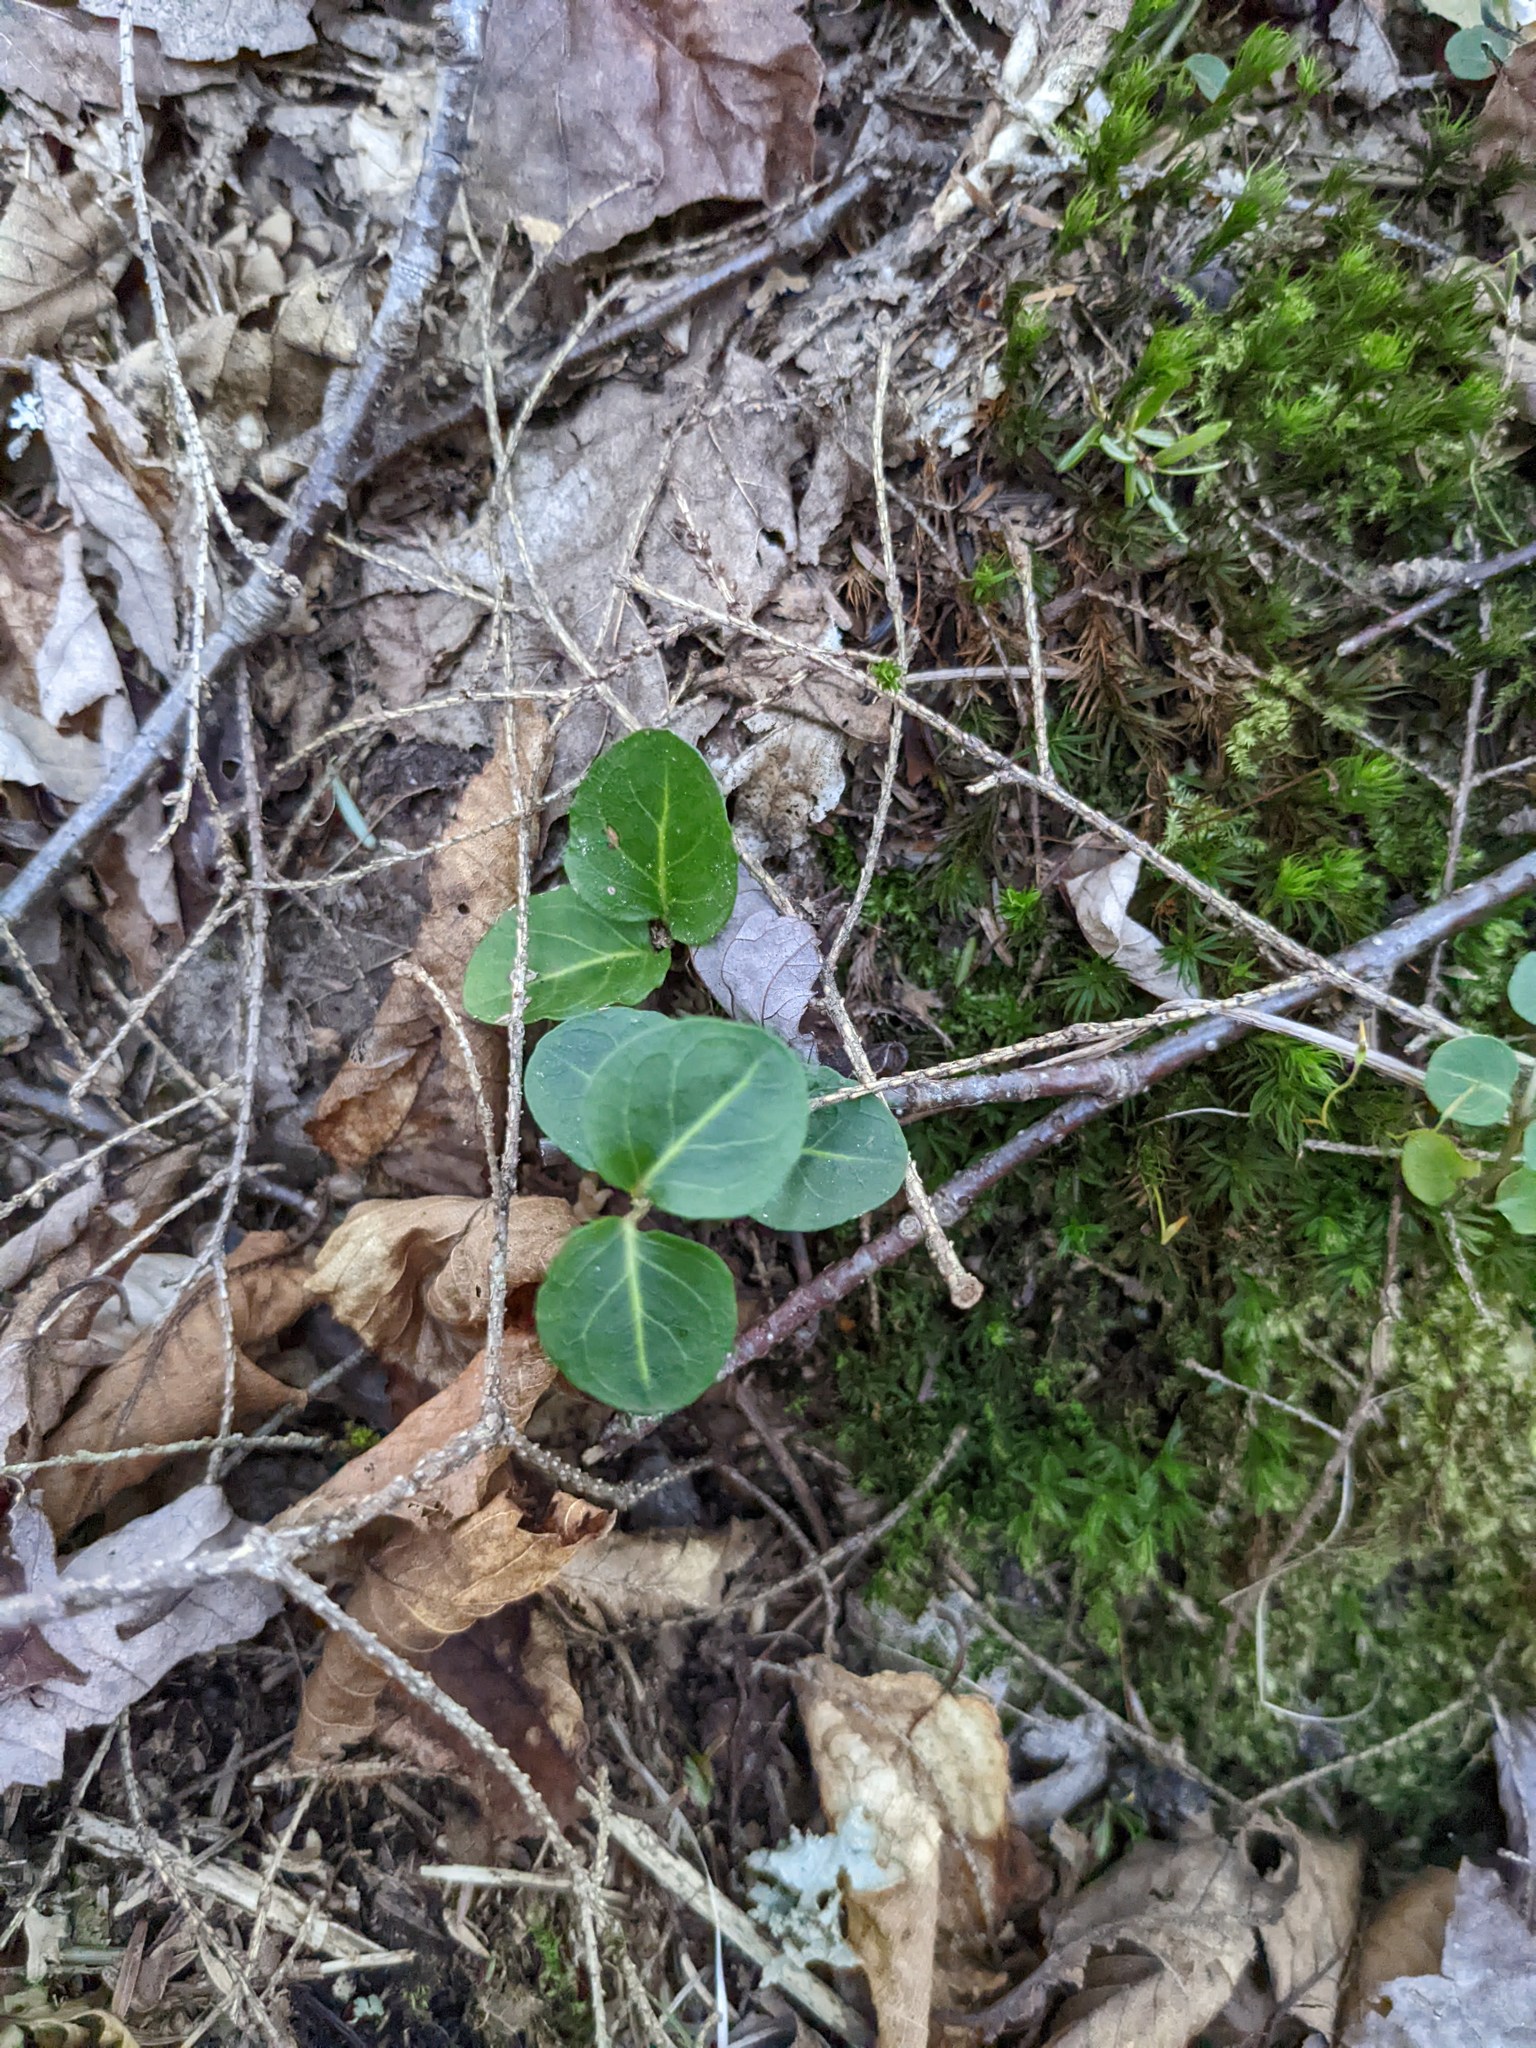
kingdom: Plantae
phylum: Tracheophyta
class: Magnoliopsida
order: Gentianales
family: Rubiaceae
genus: Mitchella
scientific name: Mitchella repens
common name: Partridge-berry
